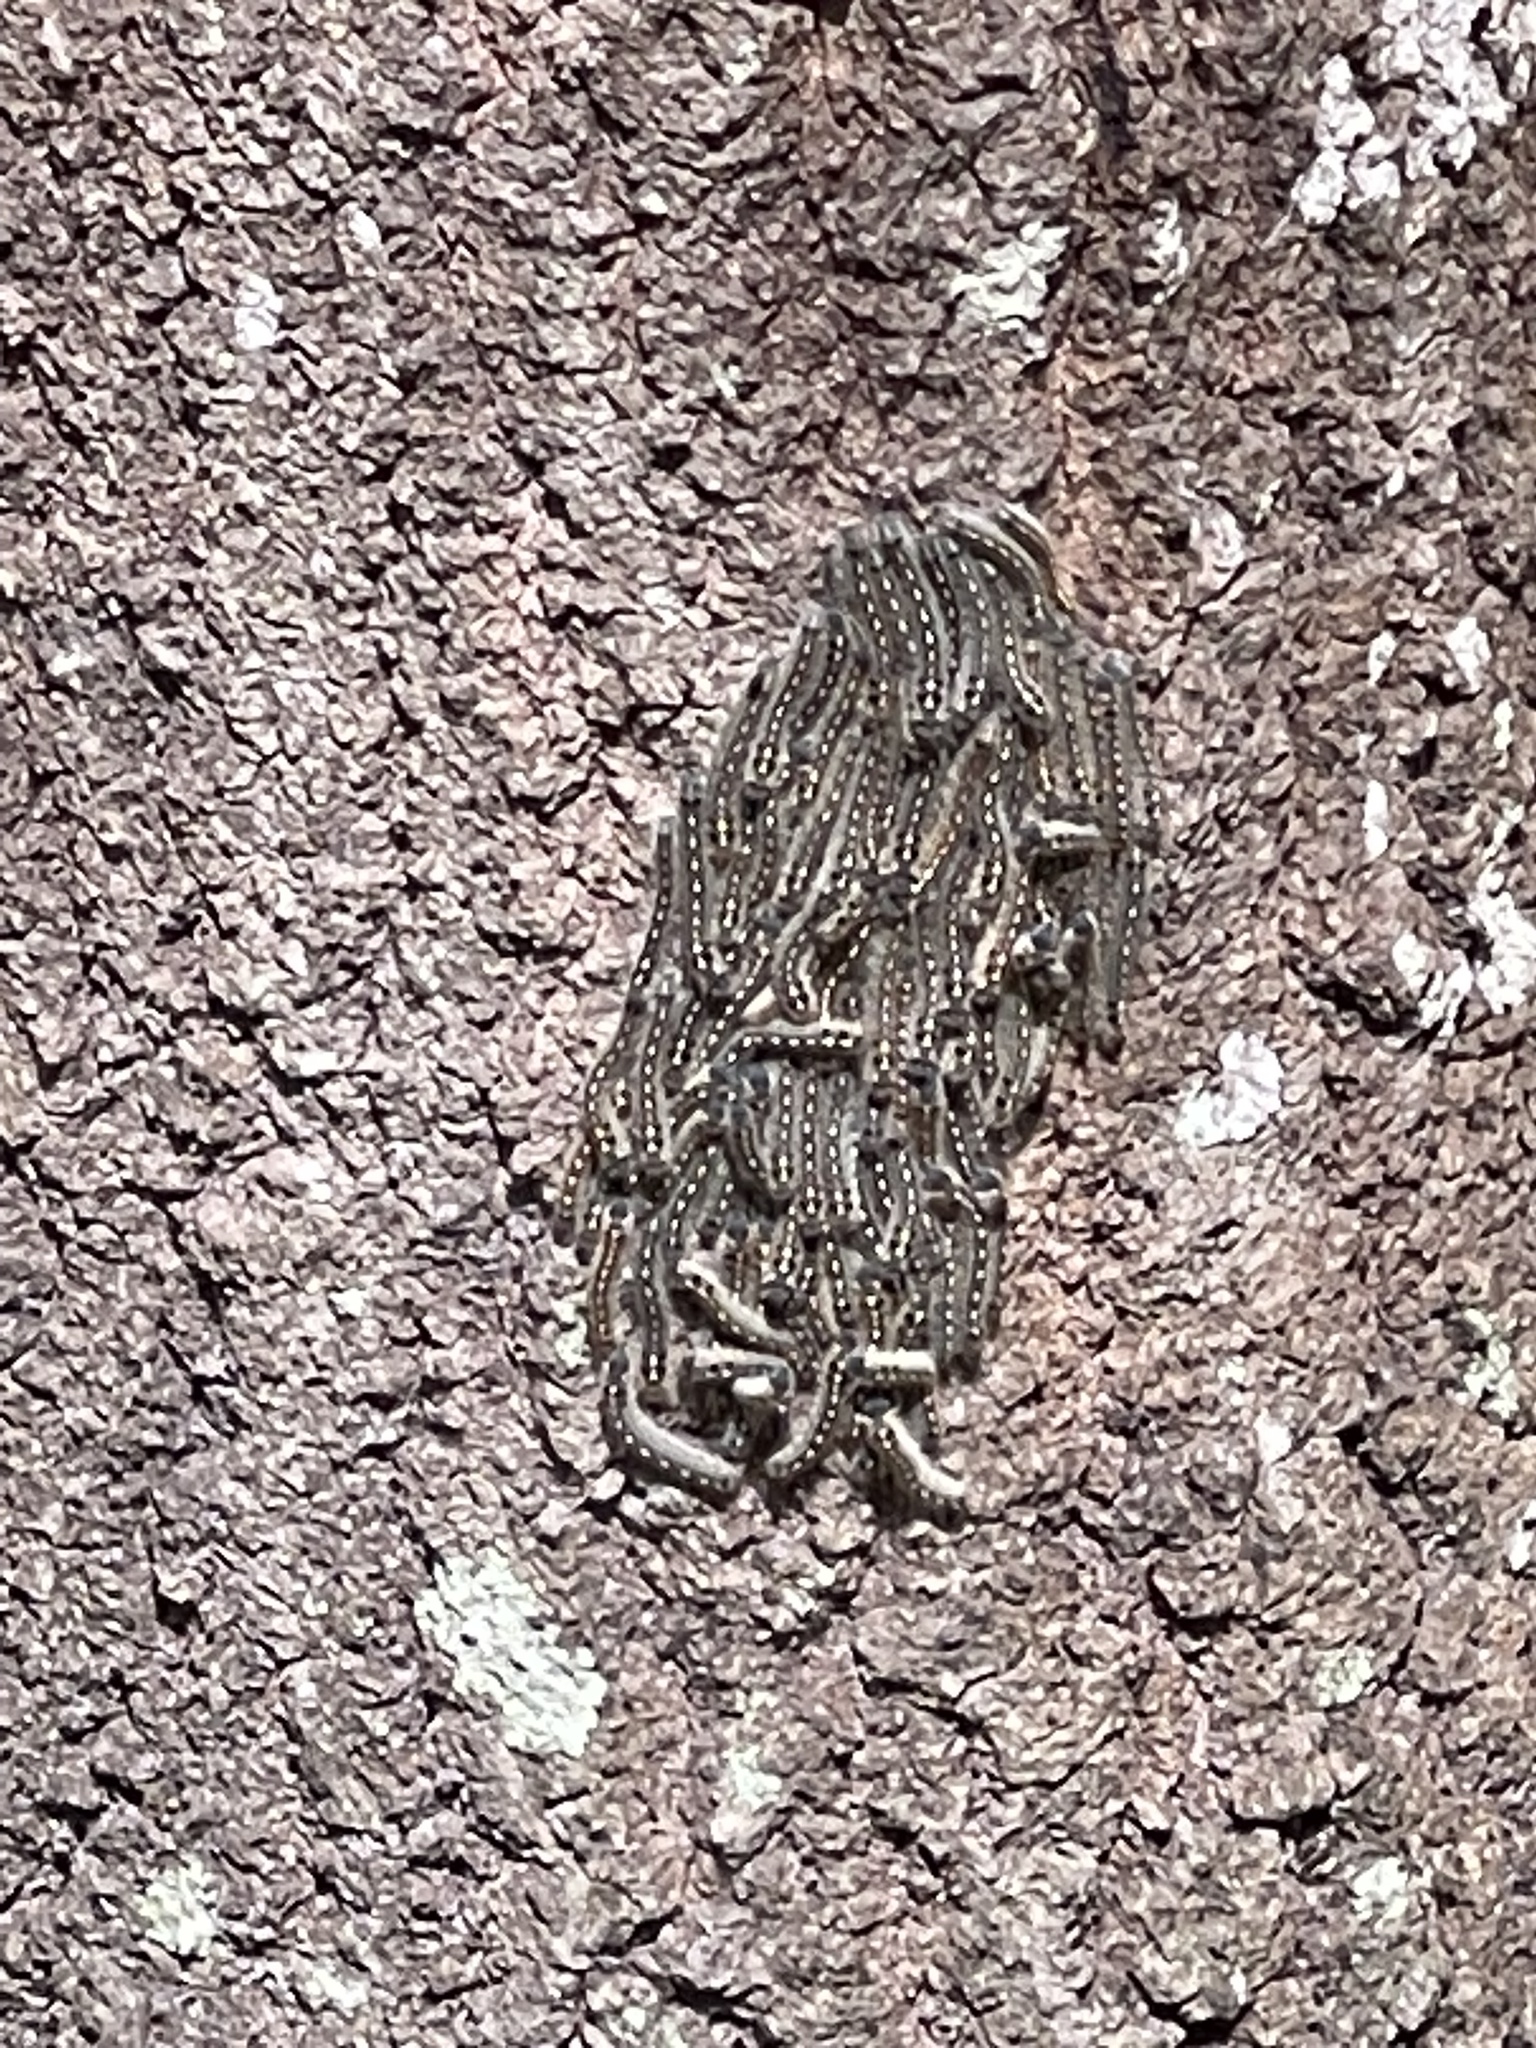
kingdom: Animalia
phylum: Arthropoda
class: Insecta
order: Lepidoptera
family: Lasiocampidae
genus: Malacosoma
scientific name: Malacosoma disstria
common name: Forest tent caterpillar
